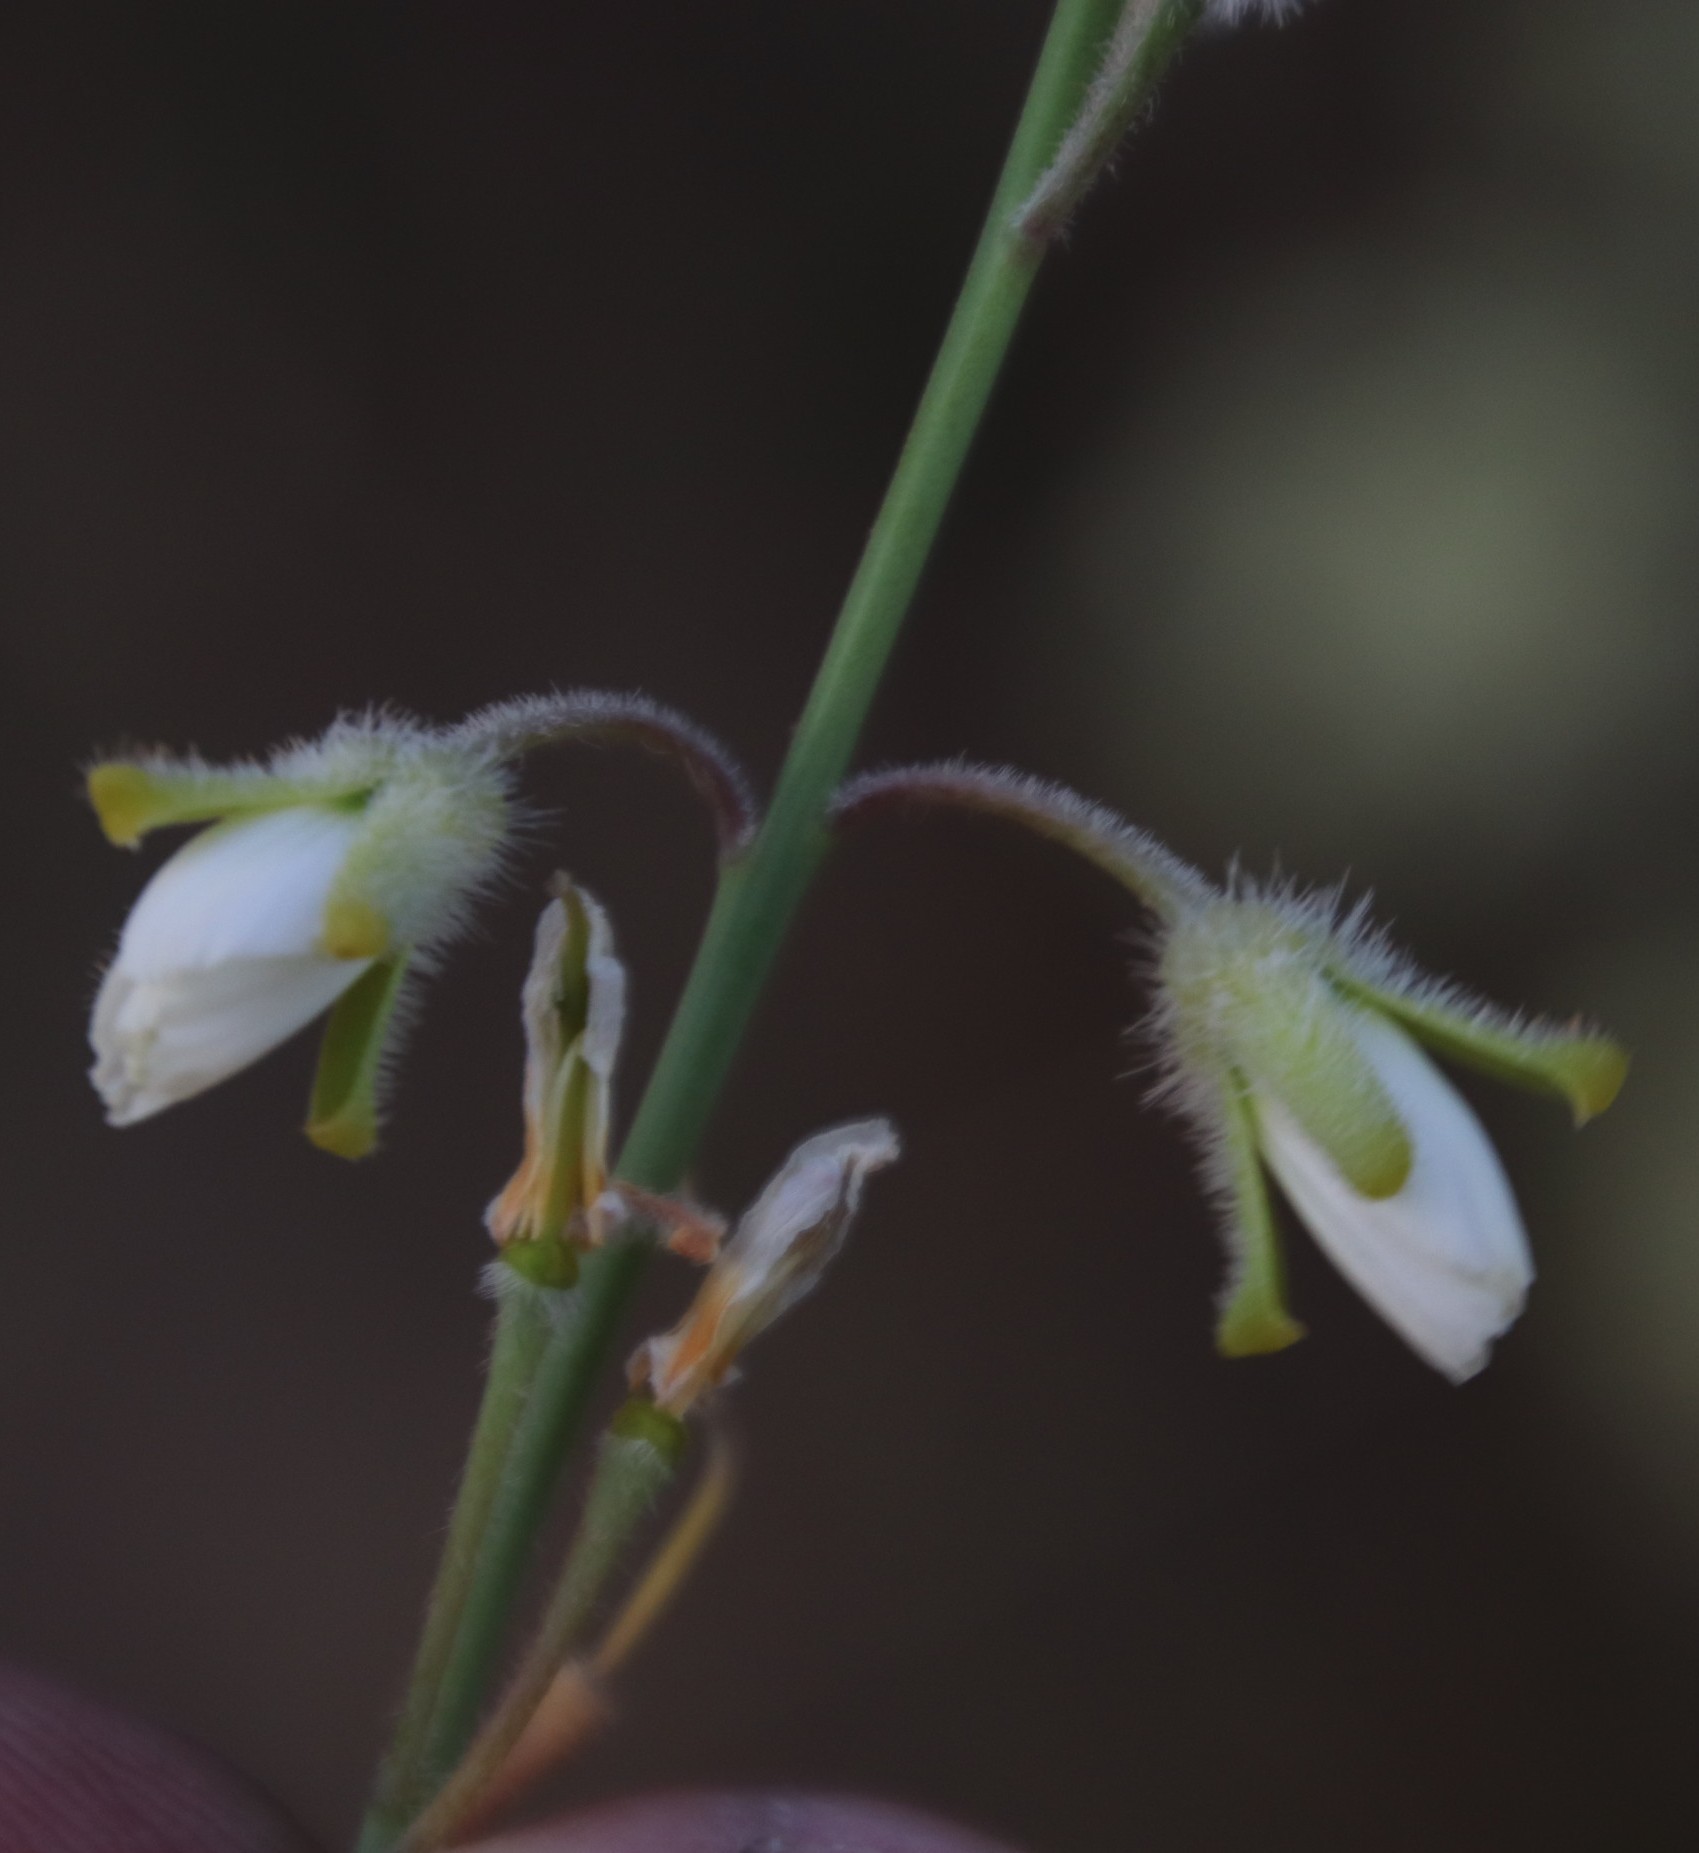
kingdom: Plantae
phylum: Tracheophyta
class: Magnoliopsida
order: Brassicales
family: Brassicaceae
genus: Heliophila
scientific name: Heliophila linearis
